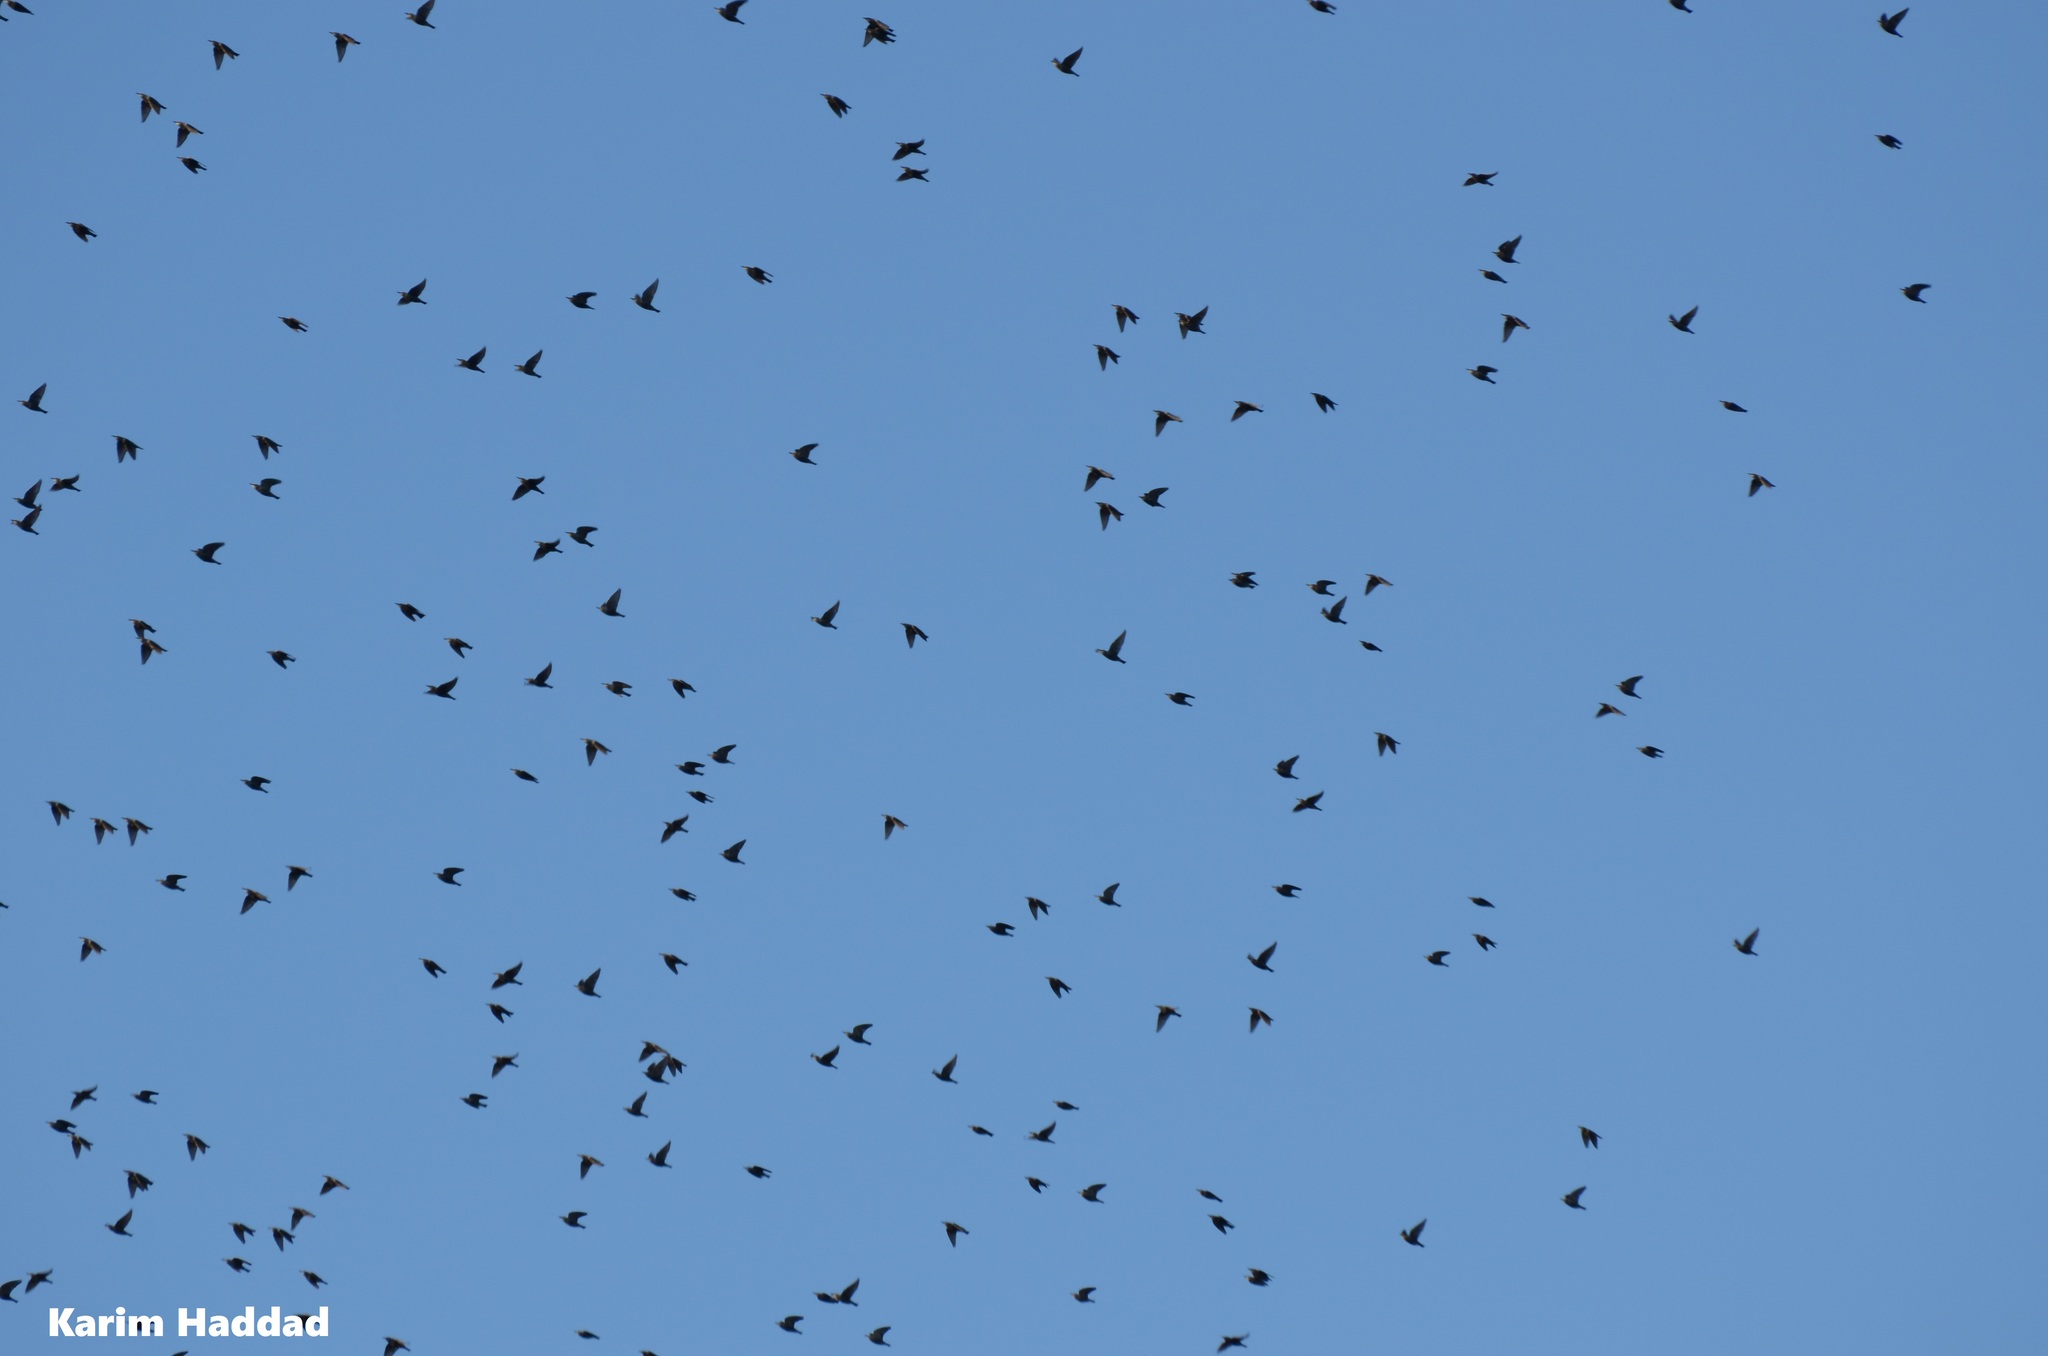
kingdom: Animalia
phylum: Chordata
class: Aves
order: Coraciiformes
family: Meropidae
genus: Merops
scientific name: Merops apiaster
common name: European bee-eater
